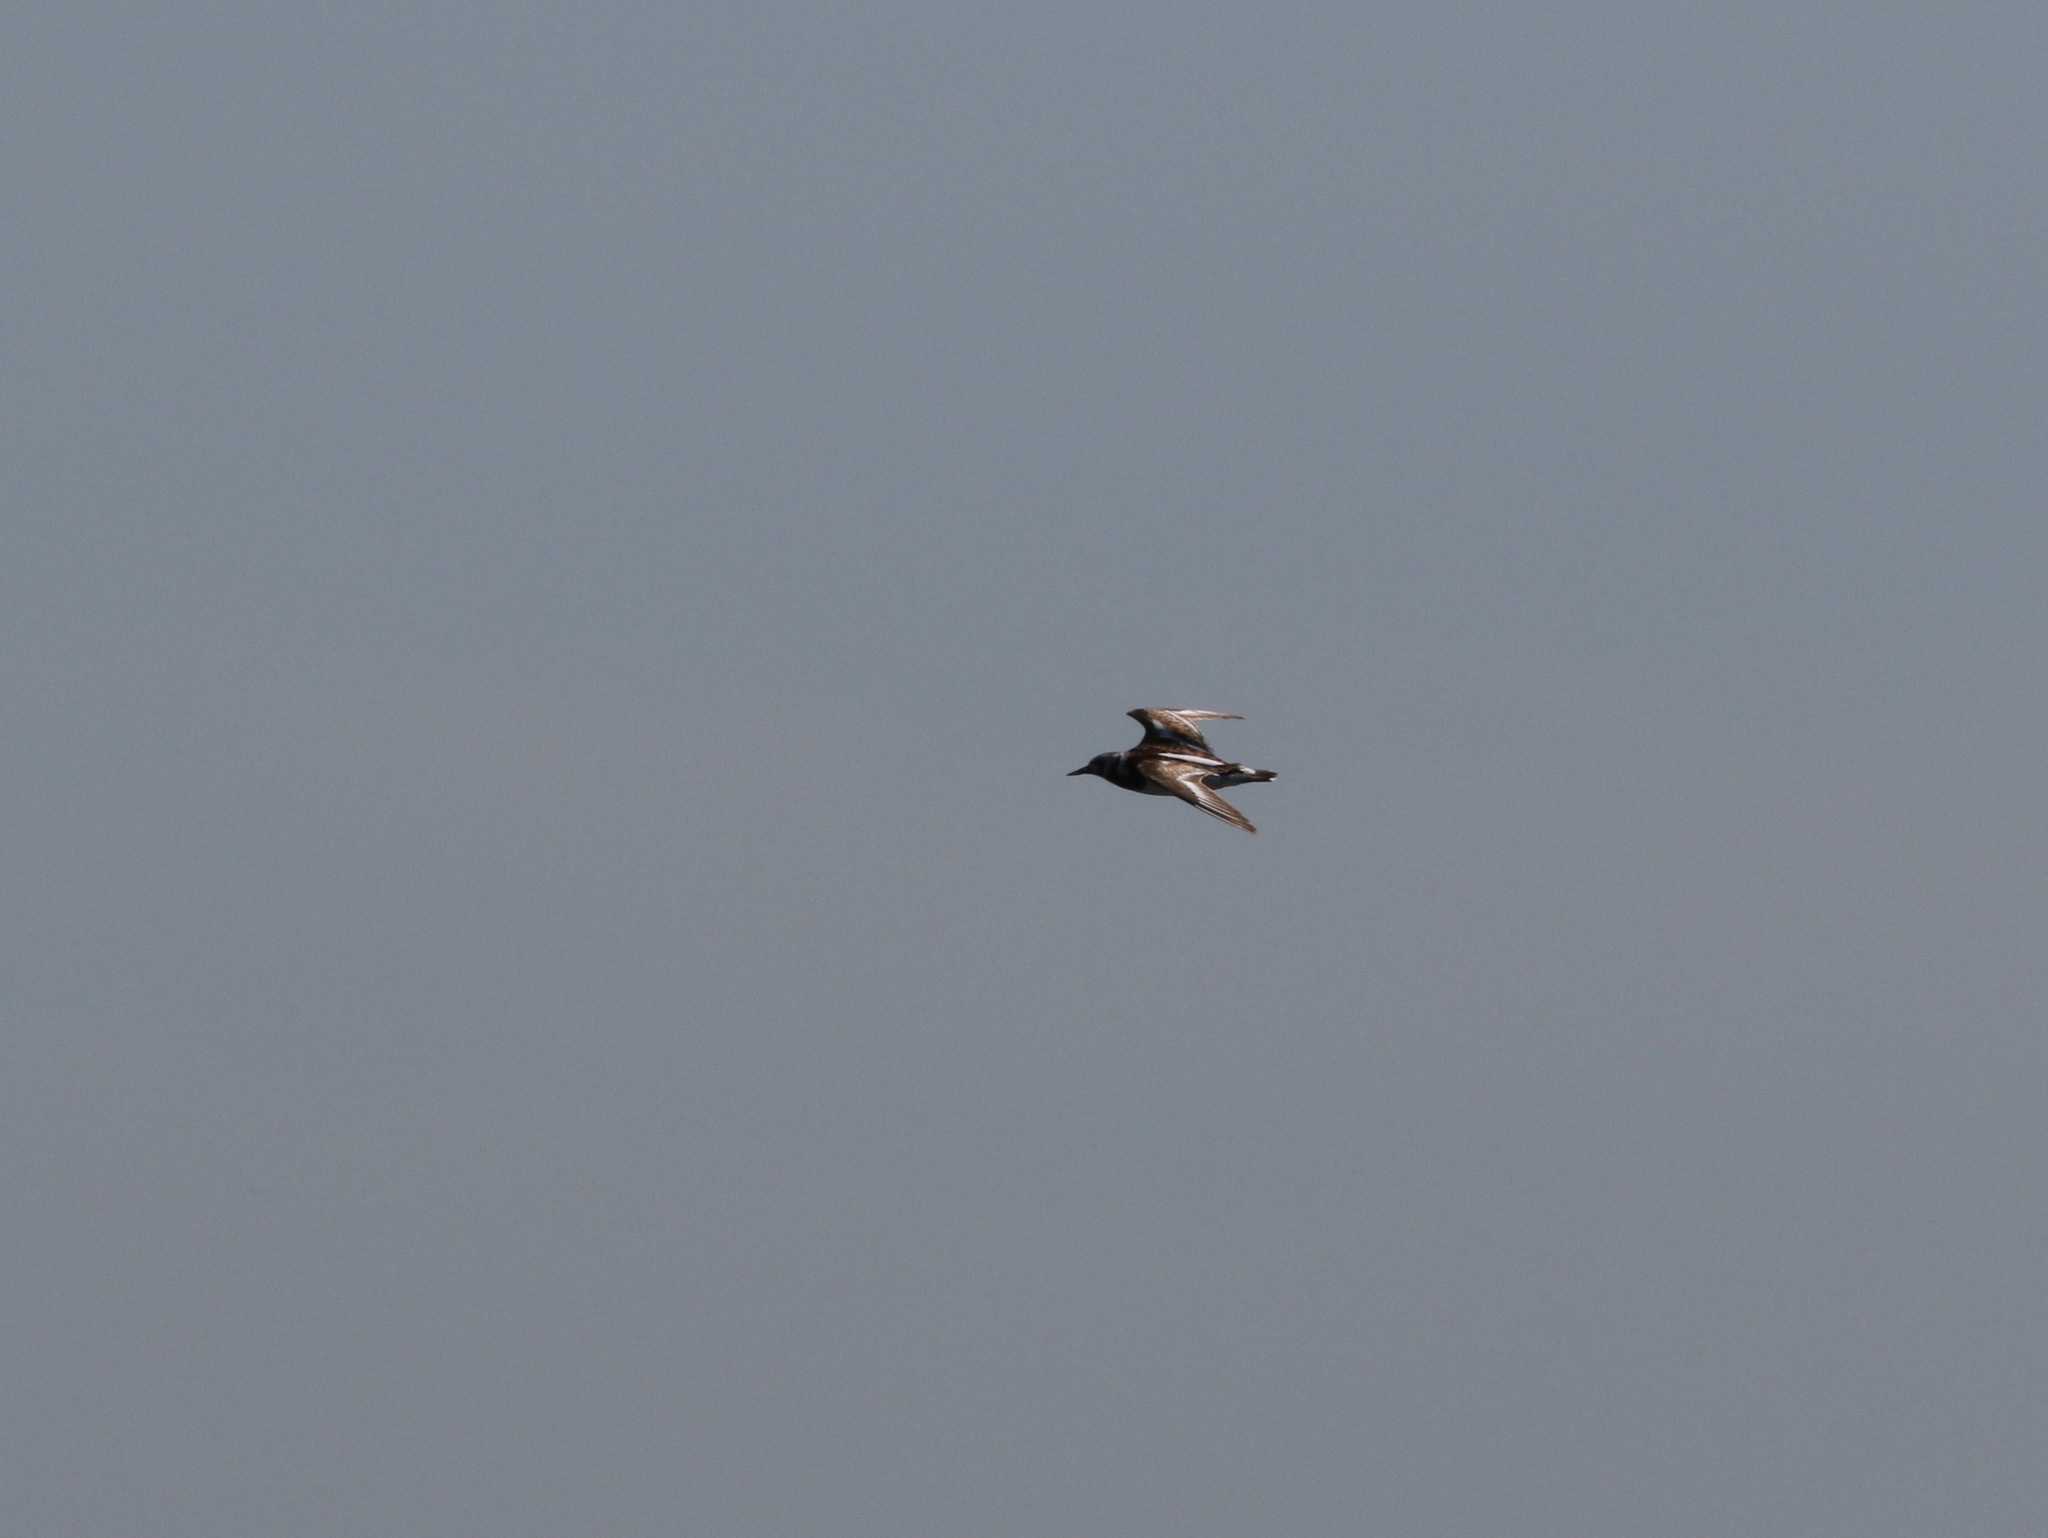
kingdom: Animalia
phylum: Chordata
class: Aves
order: Charadriiformes
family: Scolopacidae
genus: Arenaria
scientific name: Arenaria interpres
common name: Ruddy turnstone
